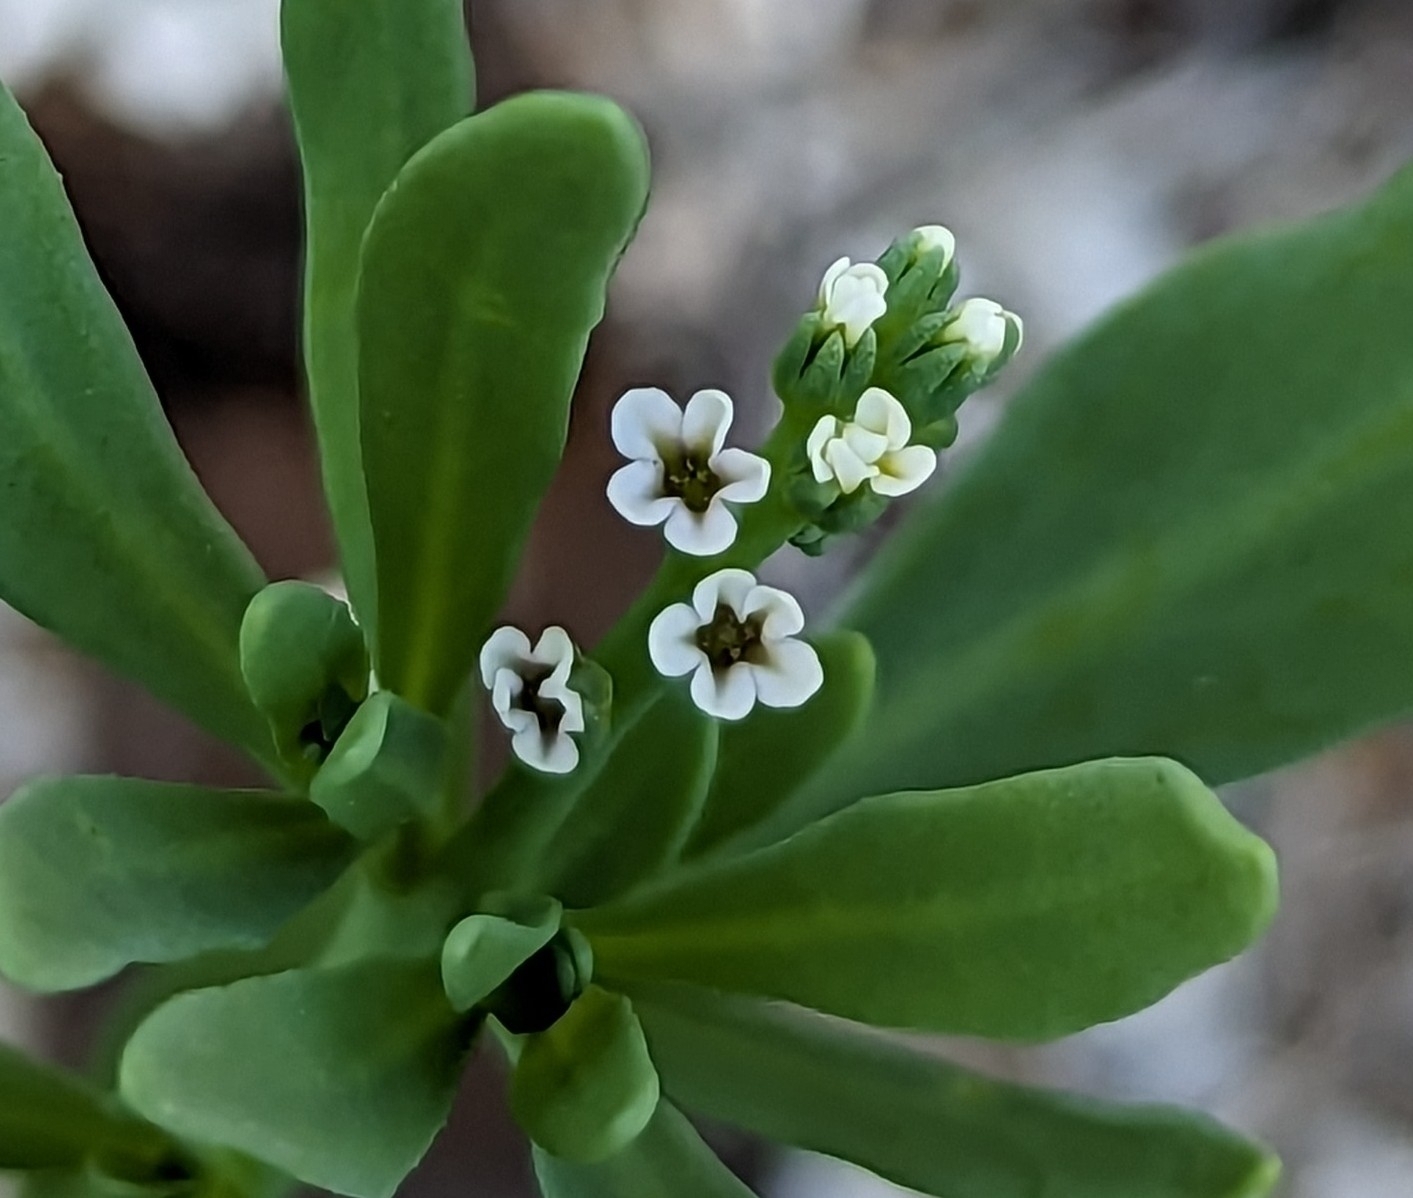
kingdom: Plantae
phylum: Tracheophyta
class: Magnoliopsida
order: Boraginales
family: Heliotropiaceae
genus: Heliotropium
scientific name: Heliotropium curassavicum
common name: Seaside heliotrope
